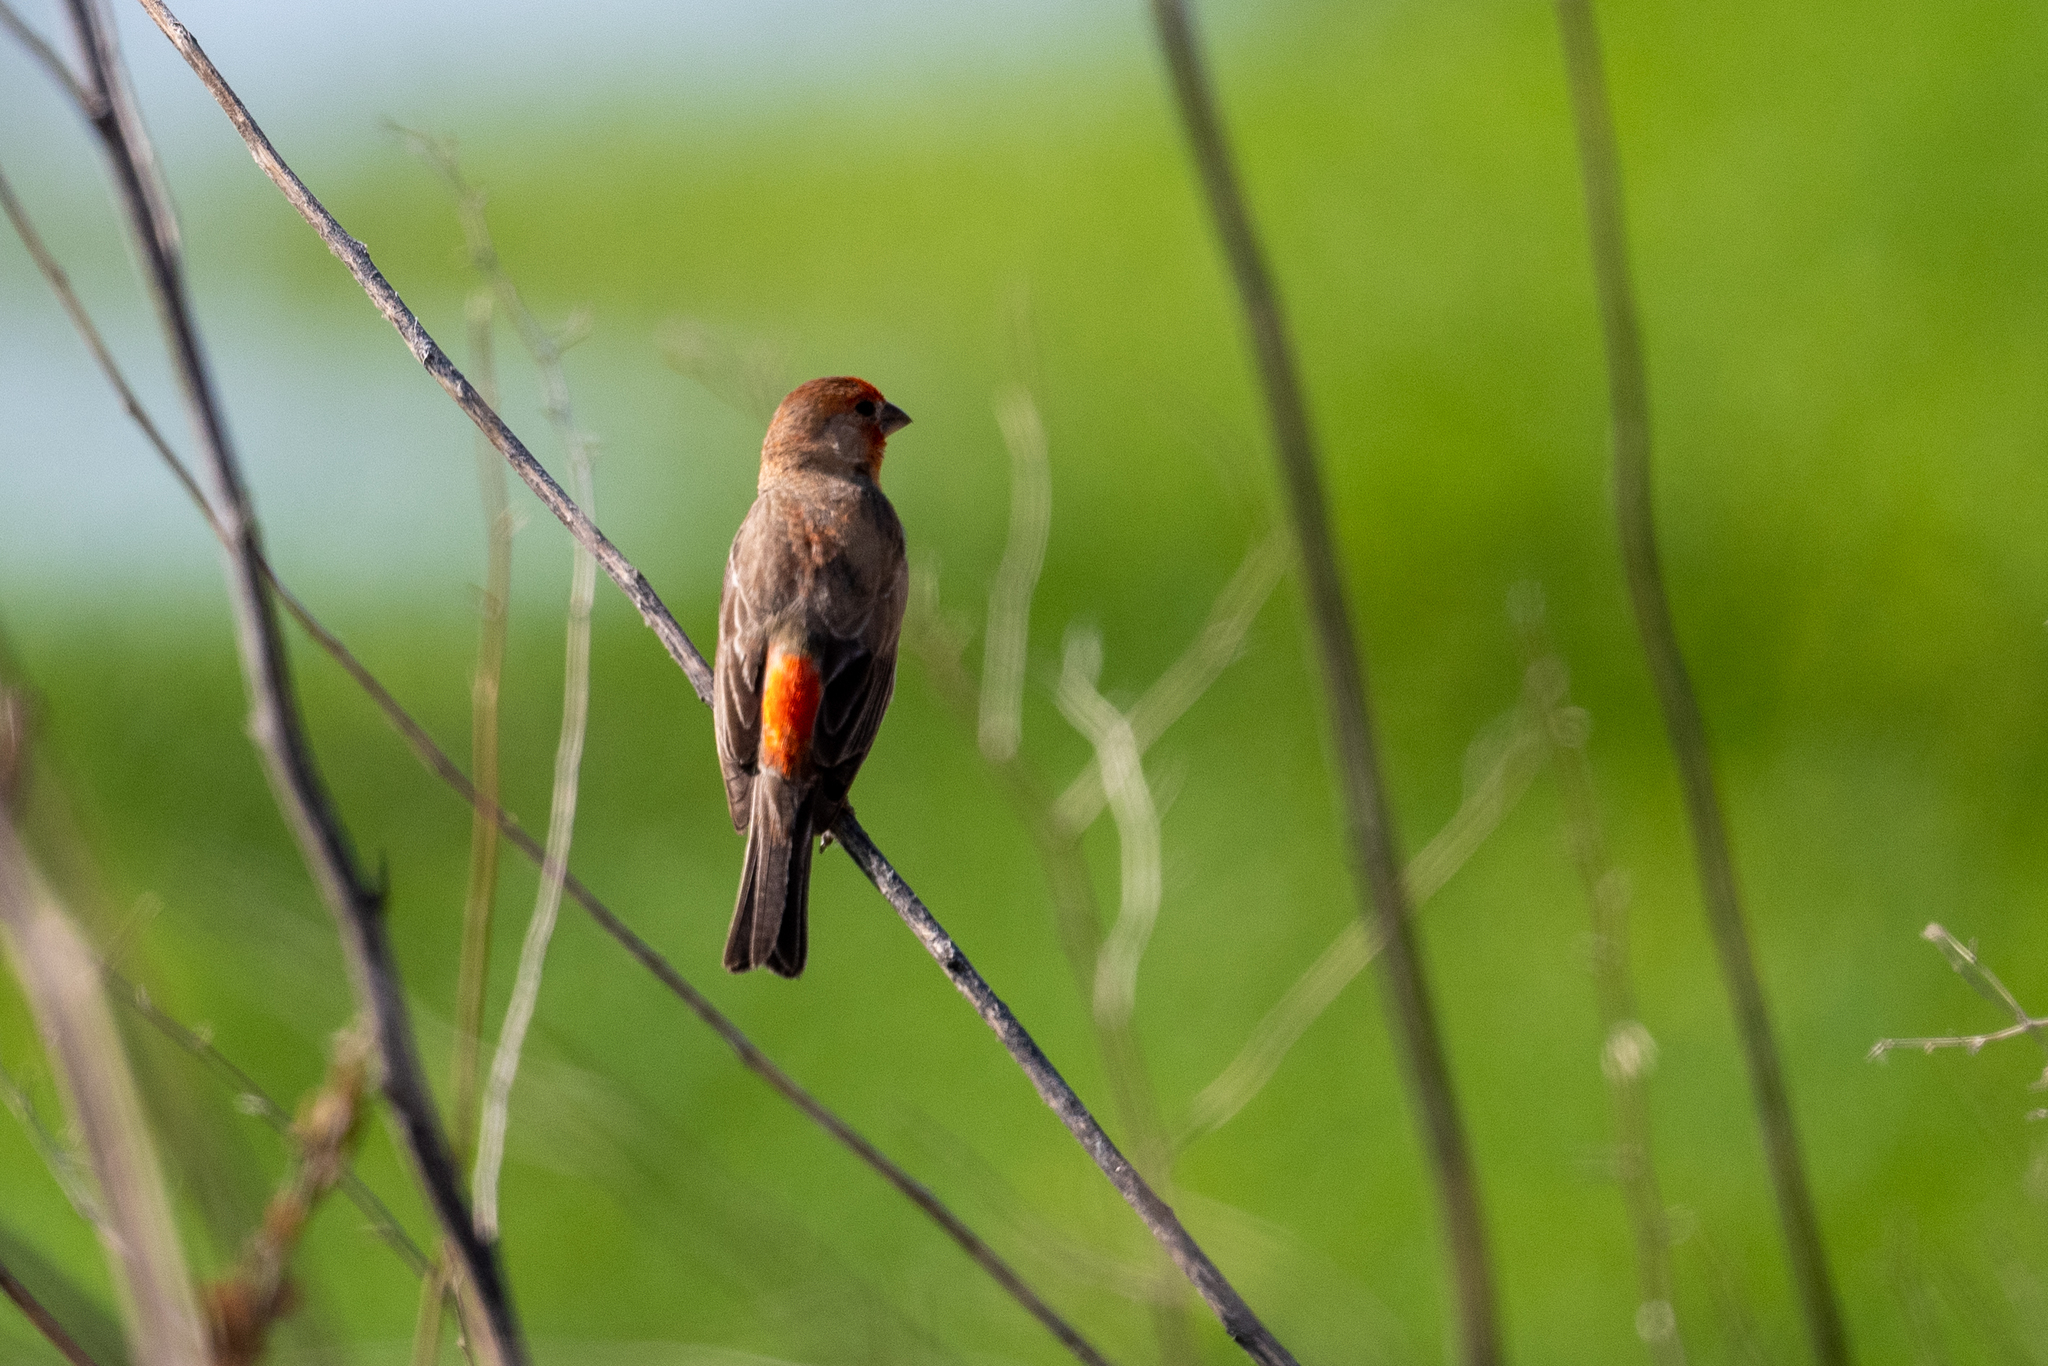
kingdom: Animalia
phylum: Chordata
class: Aves
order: Passeriformes
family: Fringillidae
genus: Haemorhous
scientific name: Haemorhous mexicanus
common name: House finch
